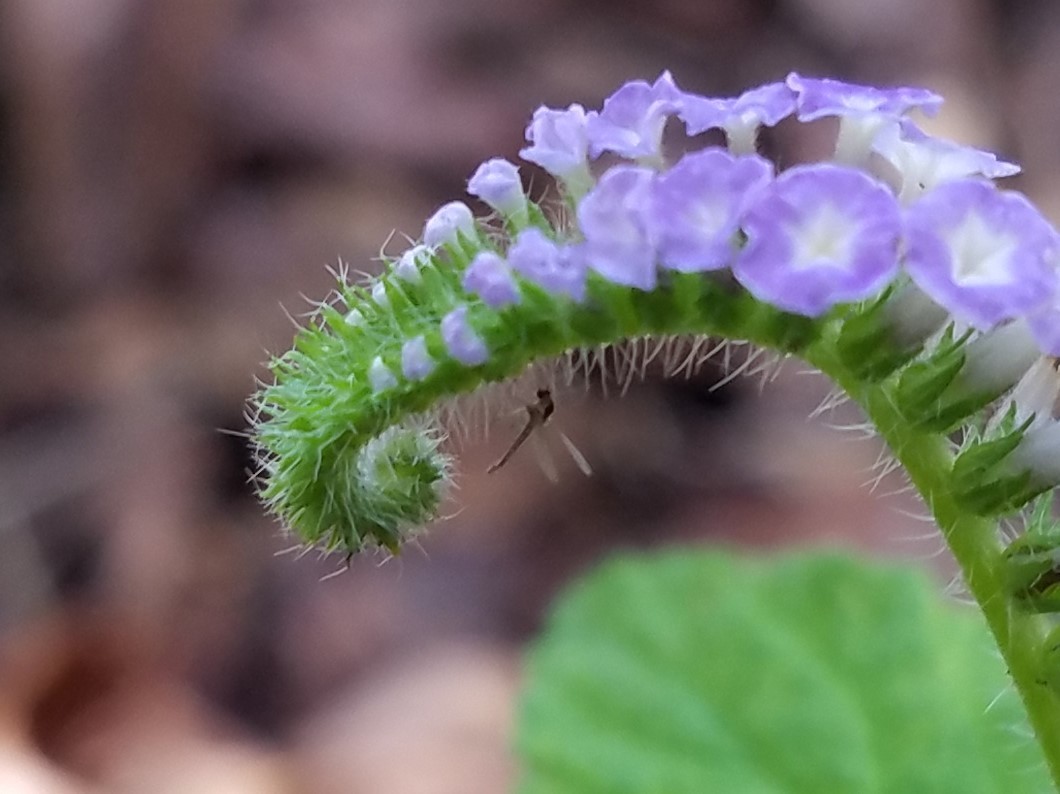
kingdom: Plantae
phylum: Tracheophyta
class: Magnoliopsida
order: Boraginales
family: Heliotropiaceae
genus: Heliotropium
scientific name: Heliotropium indicum
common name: Indian heliotrope
